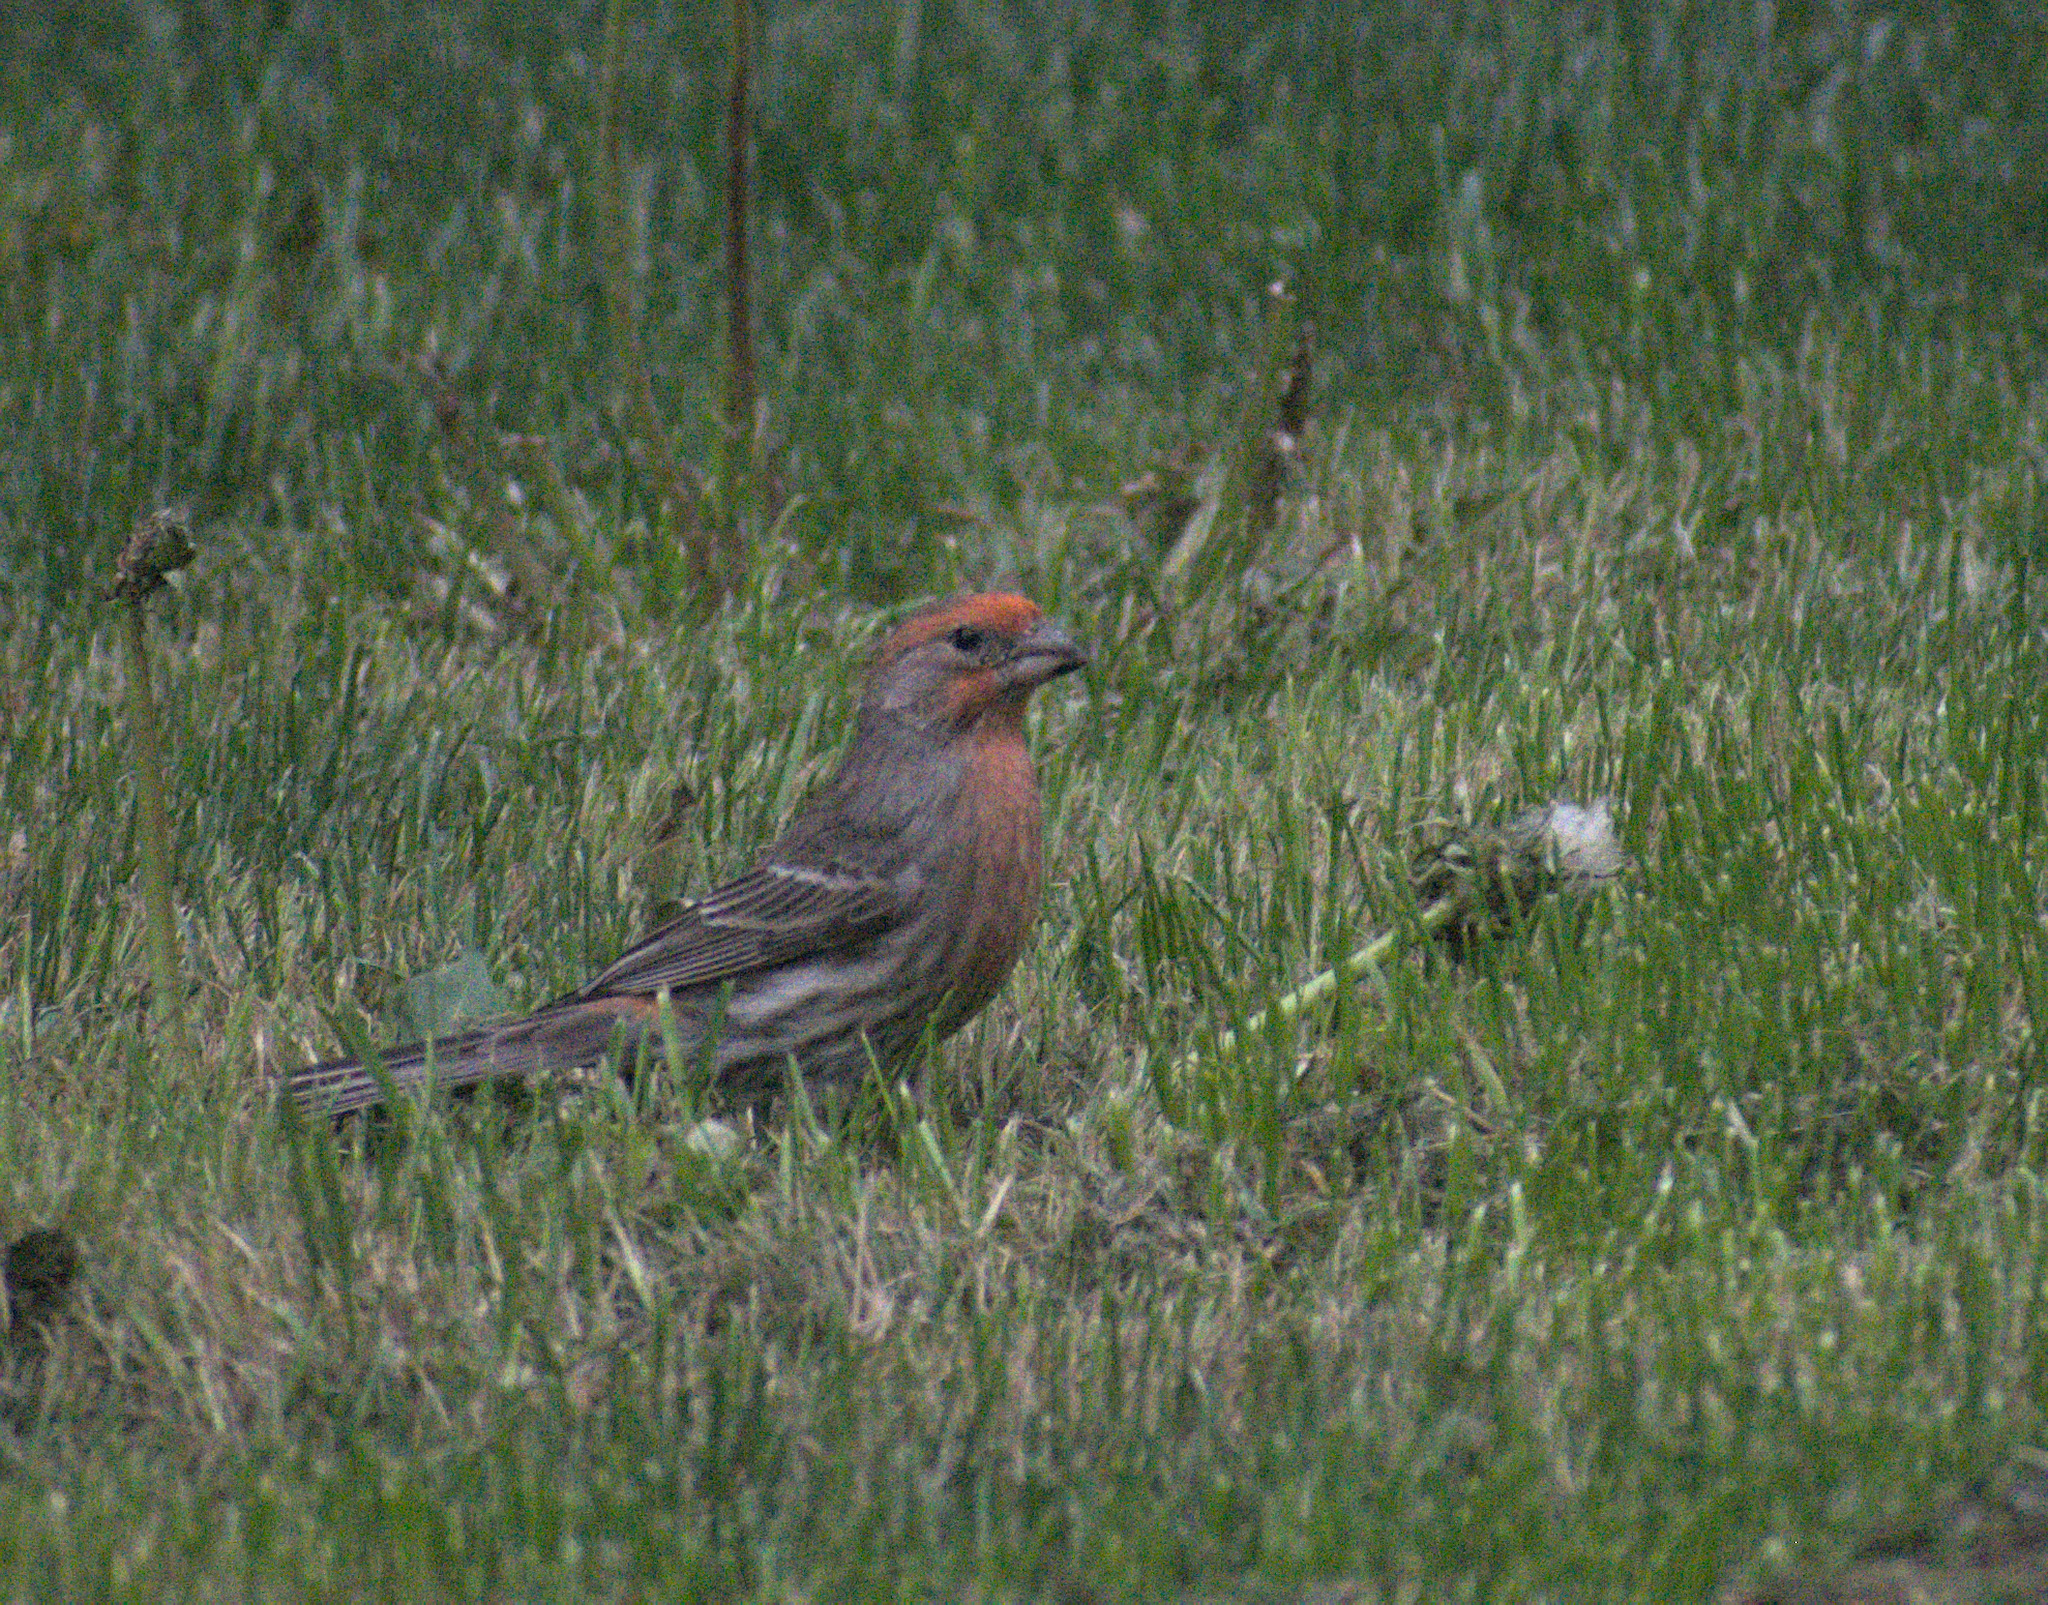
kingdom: Animalia
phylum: Chordata
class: Aves
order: Passeriformes
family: Fringillidae
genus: Haemorhous
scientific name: Haemorhous mexicanus
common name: House finch
